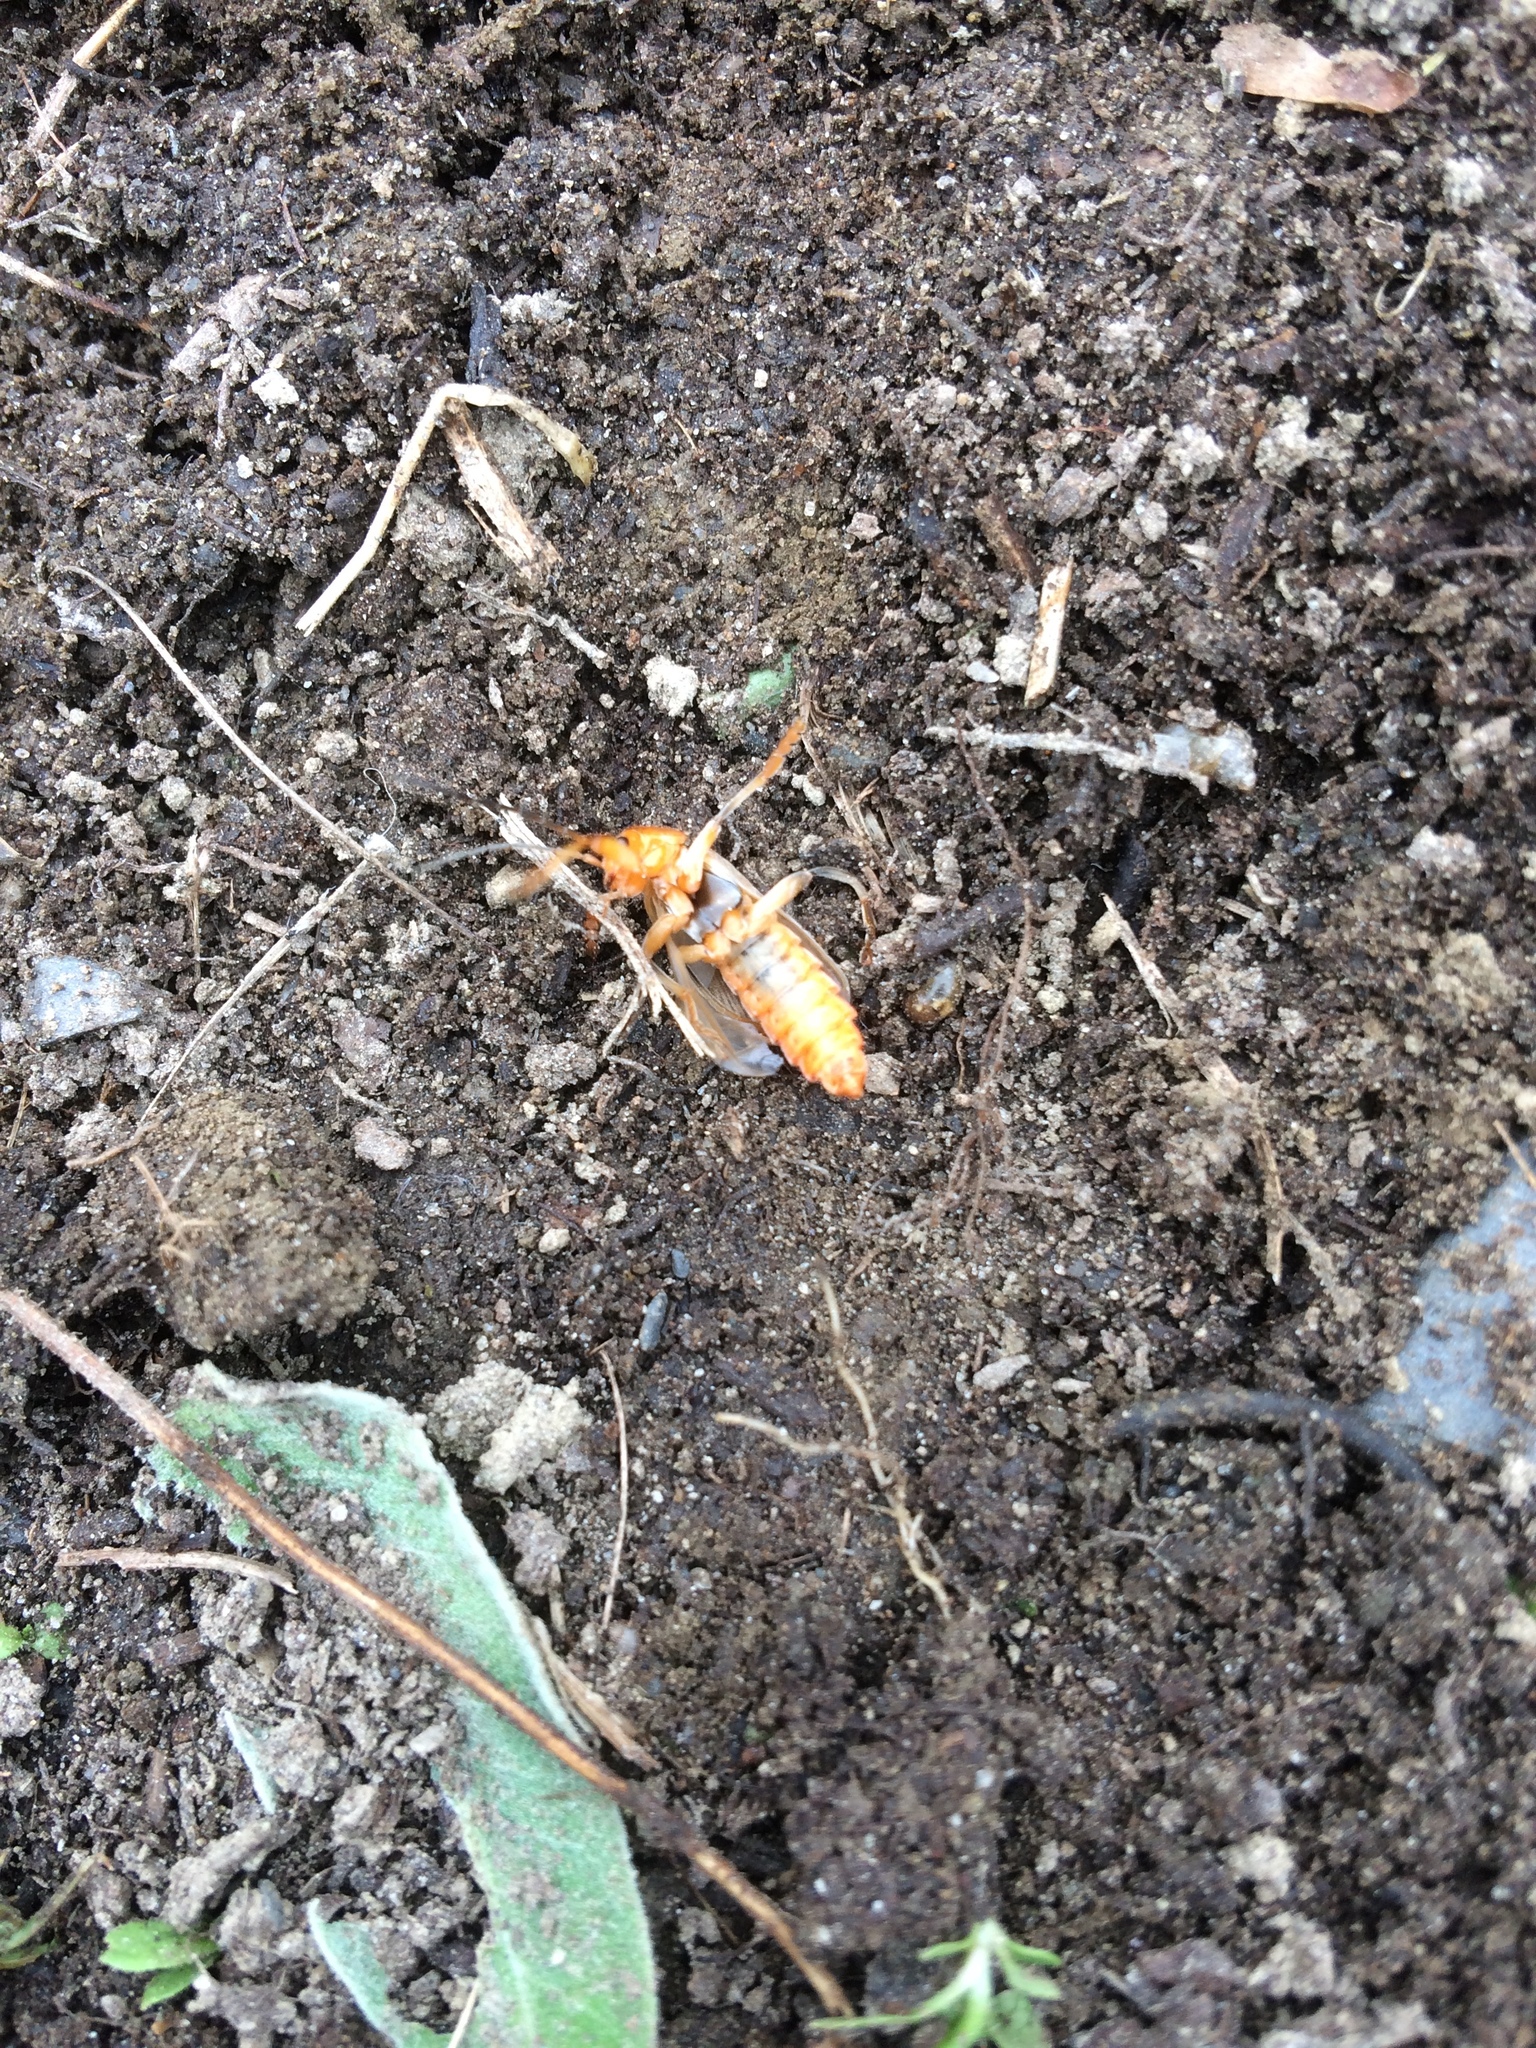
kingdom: Animalia
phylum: Arthropoda
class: Insecta
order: Coleoptera
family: Cantharidae
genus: Cantharis
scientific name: Cantharis livida
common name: Livid soldier beetle
